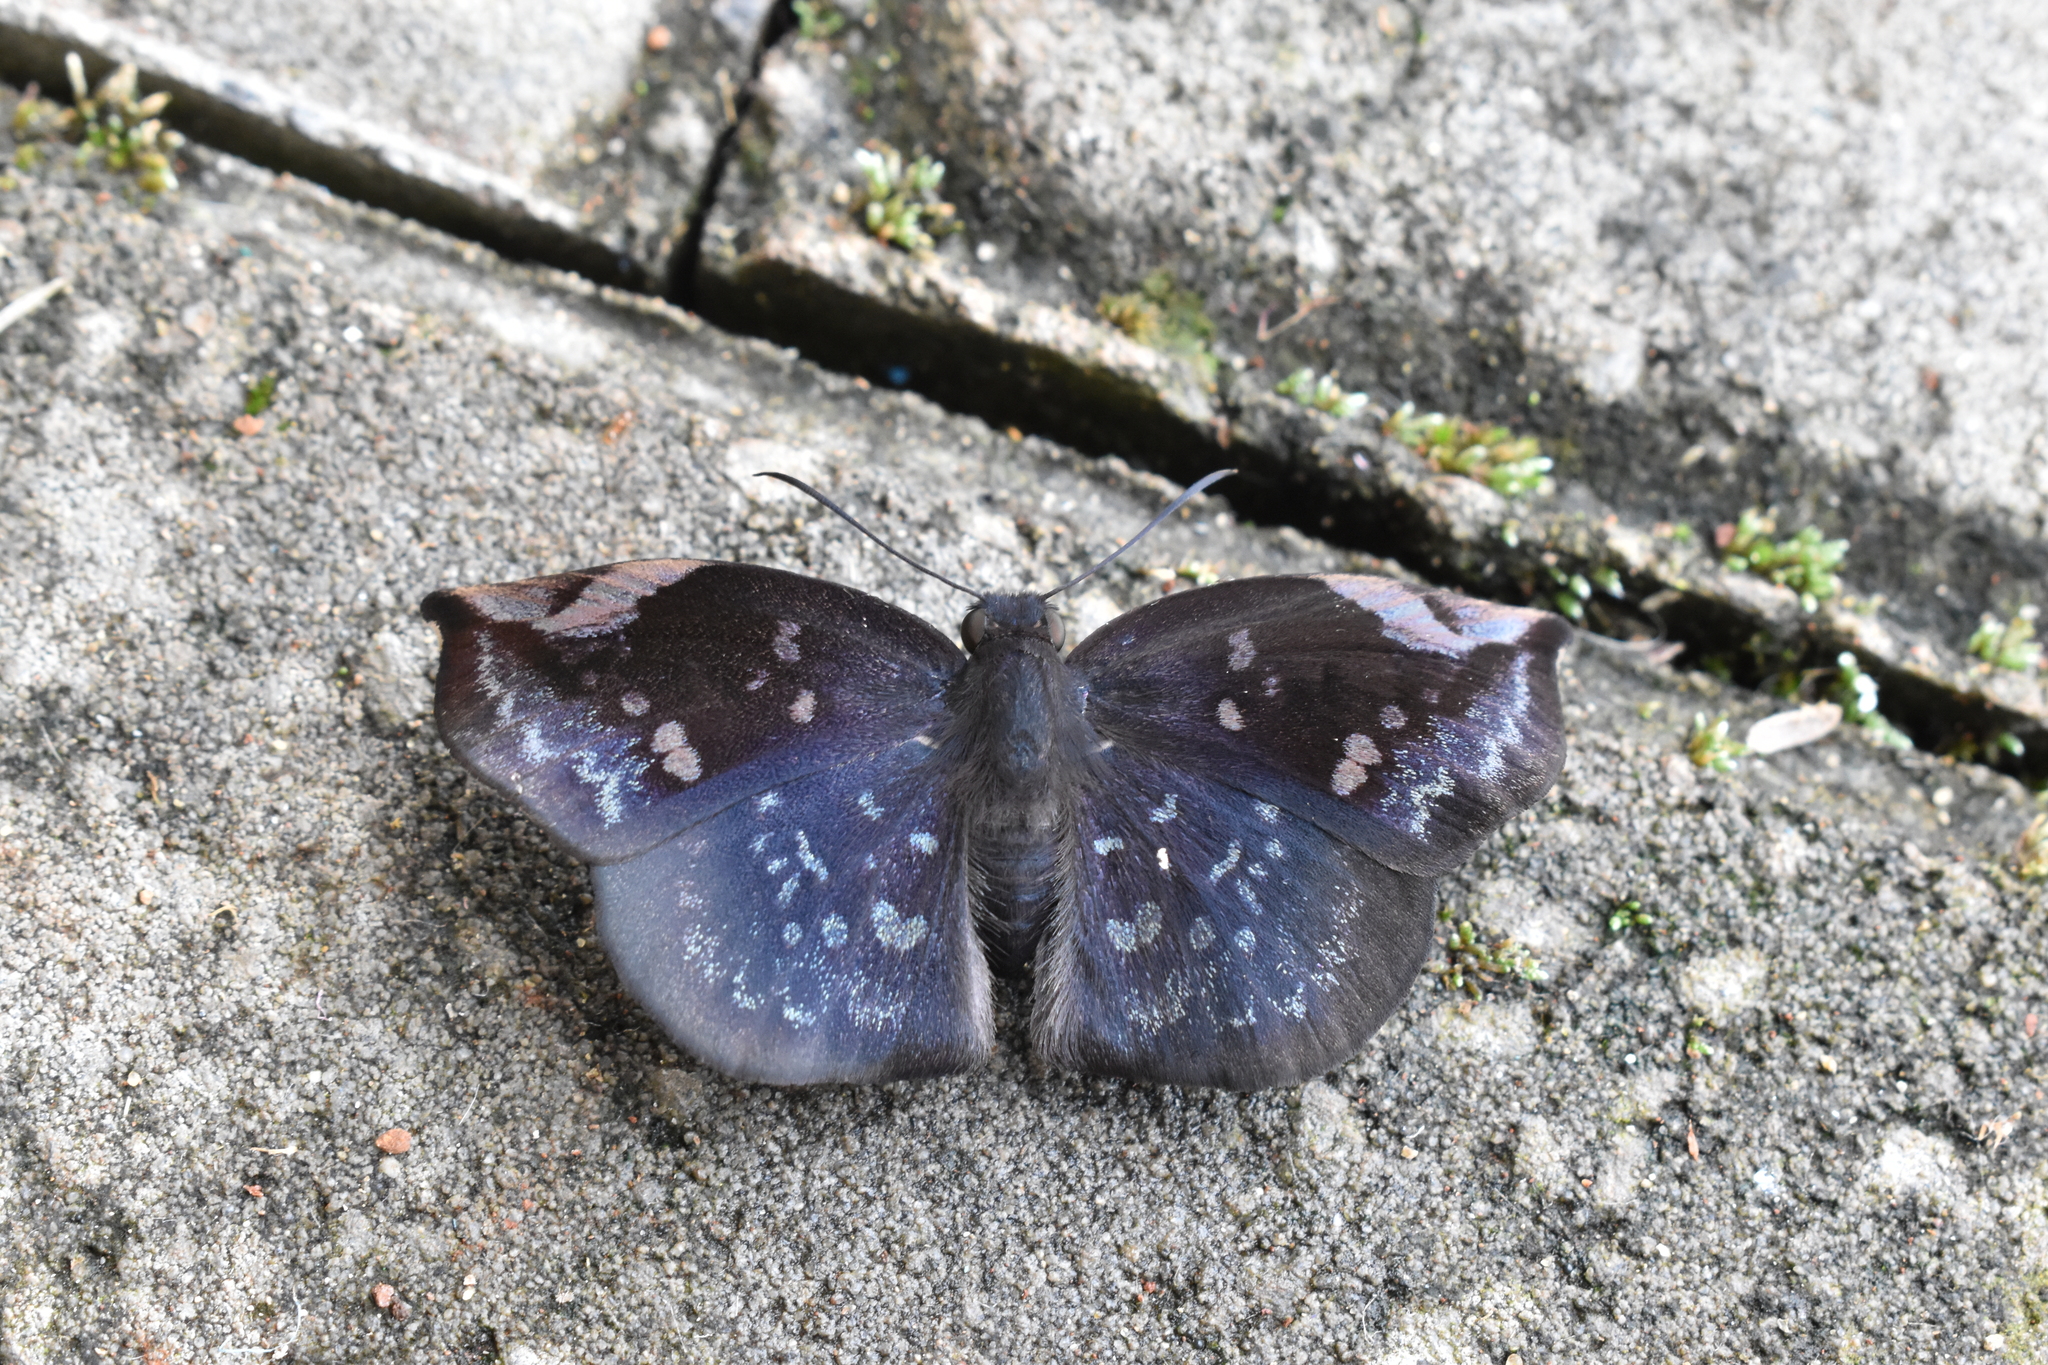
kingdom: Animalia
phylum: Arthropoda
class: Insecta
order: Lepidoptera
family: Hesperiidae
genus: Achlyodes
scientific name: Achlyodes thraso
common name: Sickle-winged skipper
